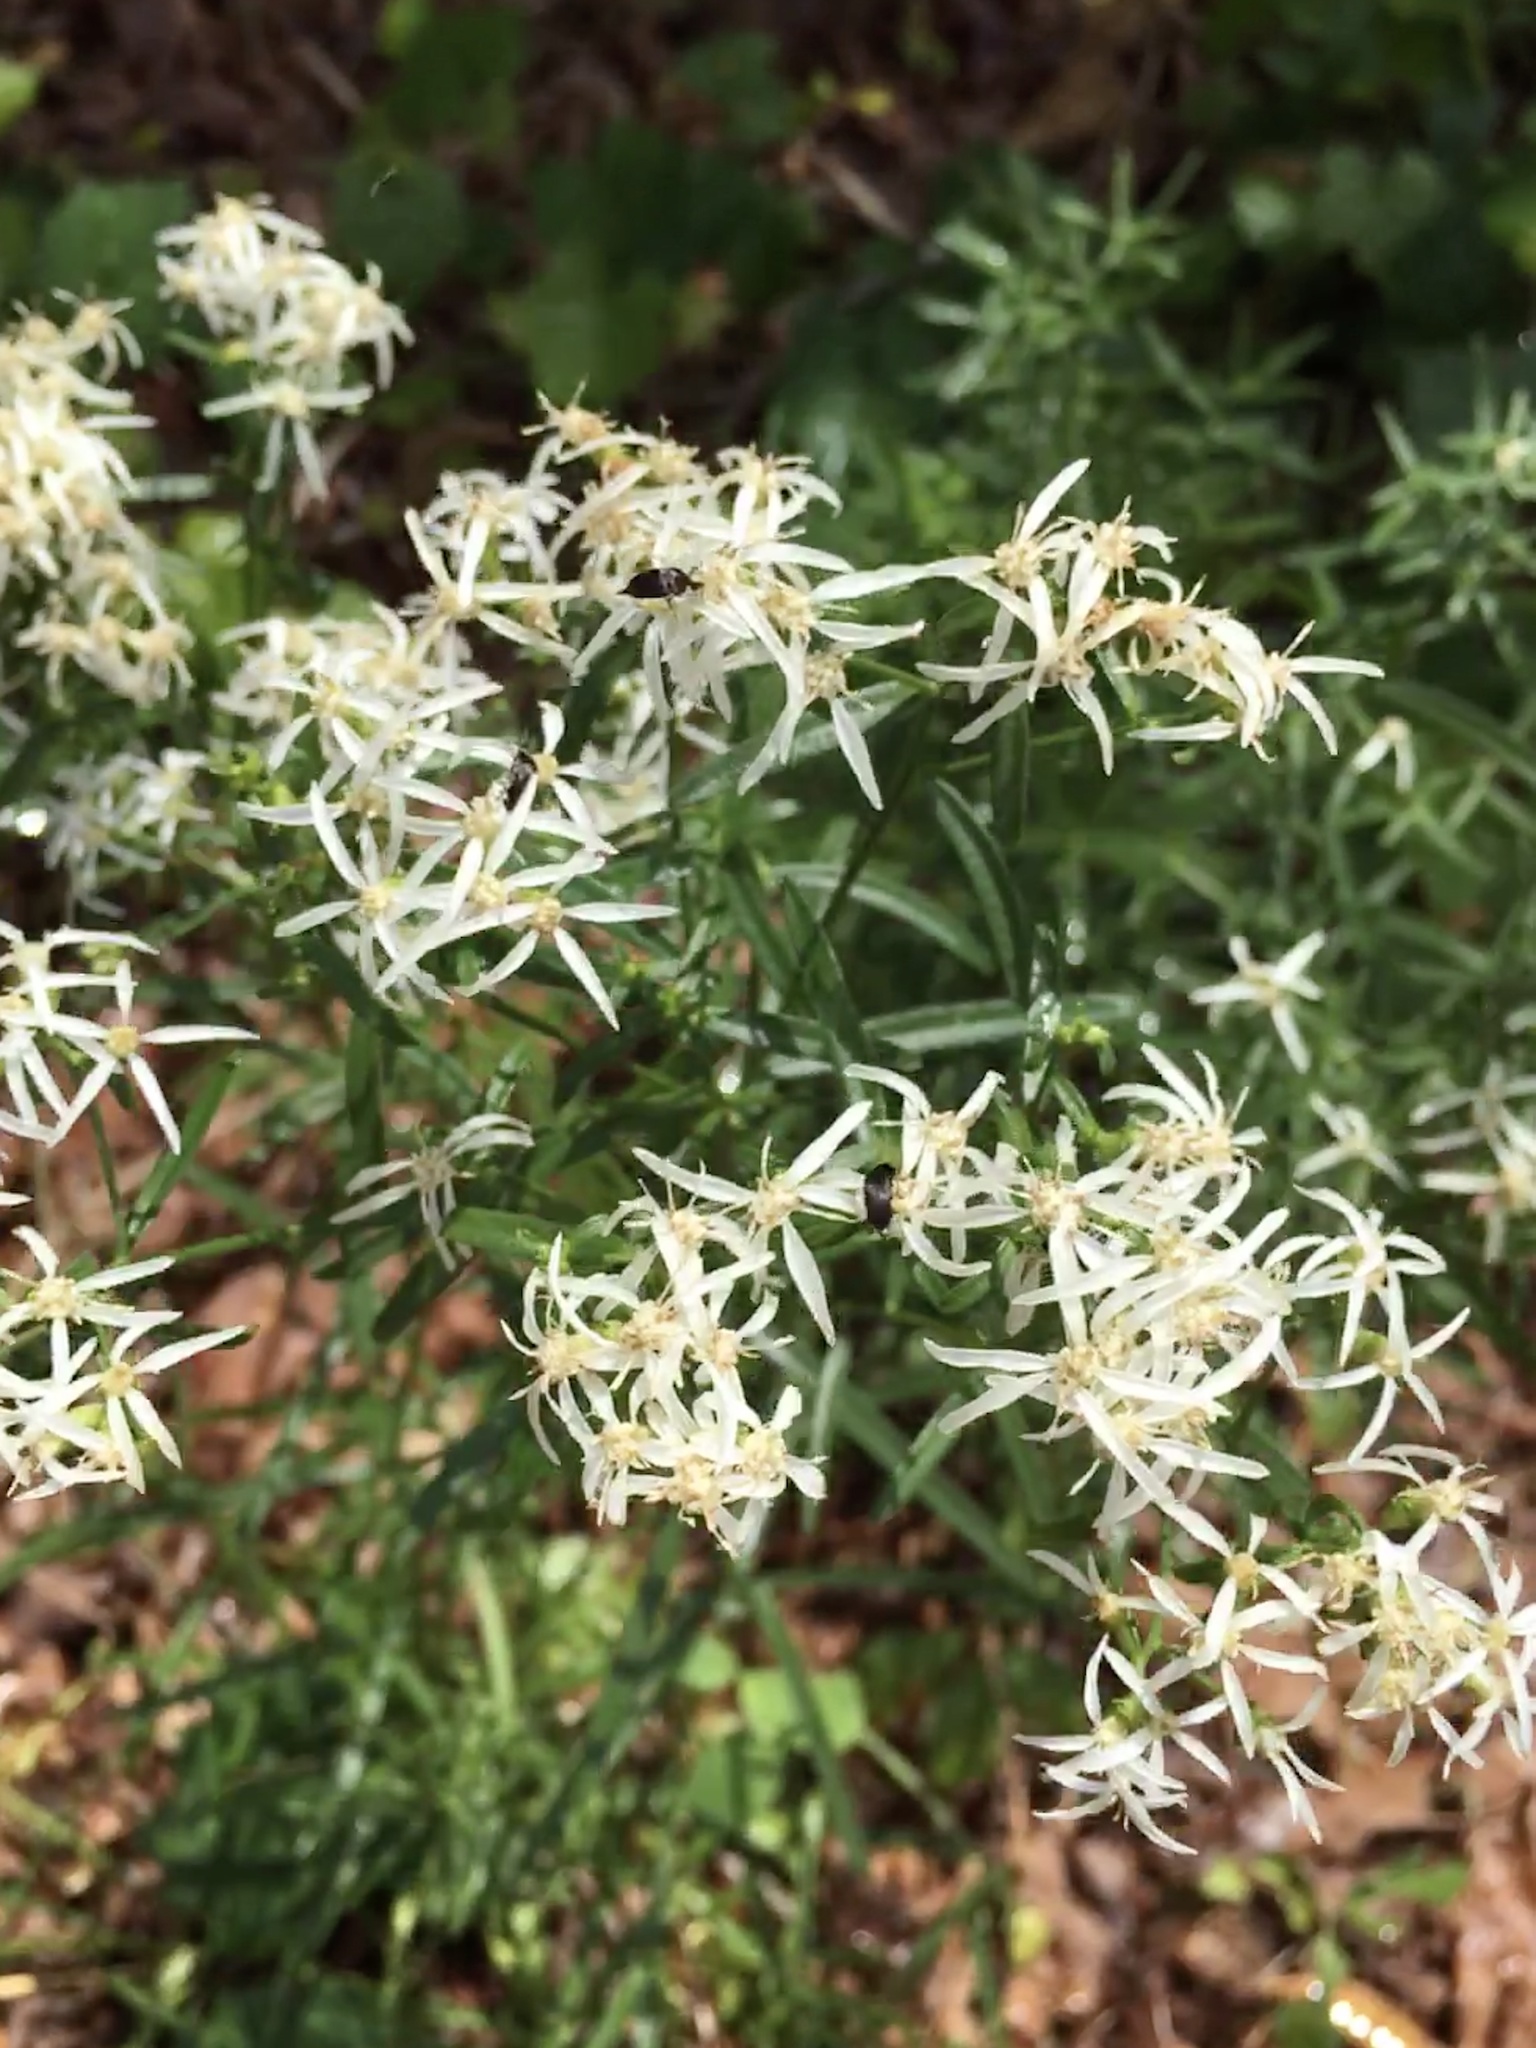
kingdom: Plantae
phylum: Tracheophyta
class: Magnoliopsida
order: Asterales
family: Asteraceae
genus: Sericocarpus
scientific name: Sericocarpus linifolius
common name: Narrow-leaf aster
